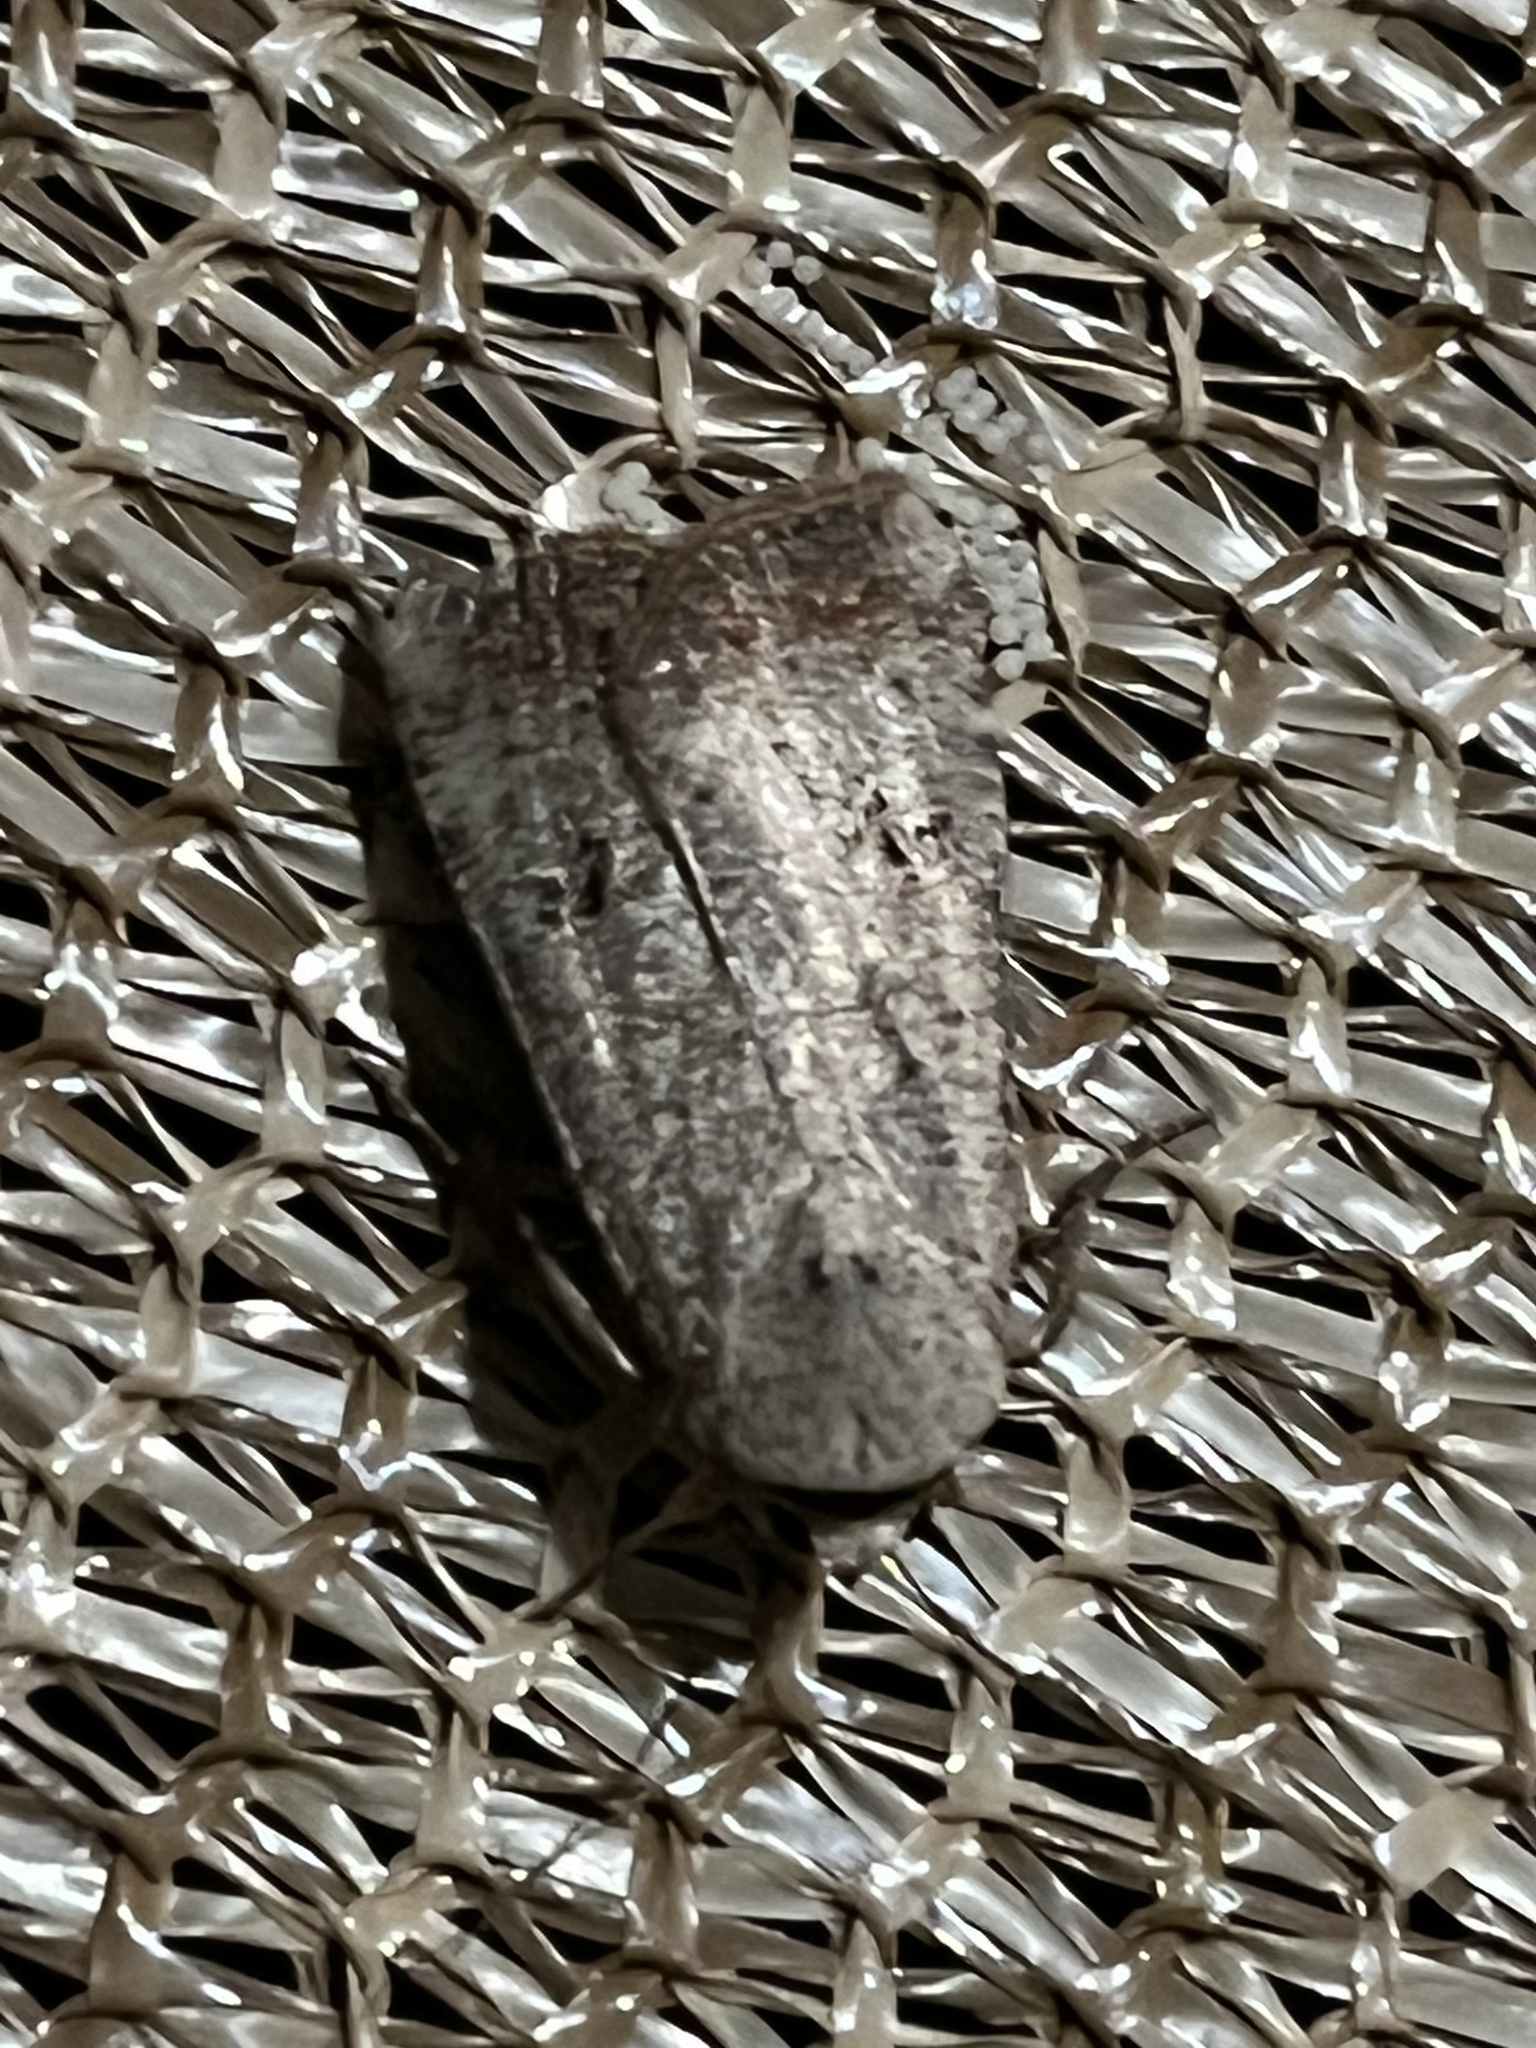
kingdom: Animalia
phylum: Arthropoda
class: Insecta
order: Lepidoptera
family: Noctuidae
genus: Anicla
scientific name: Anicla infecta
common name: Green cutworm
